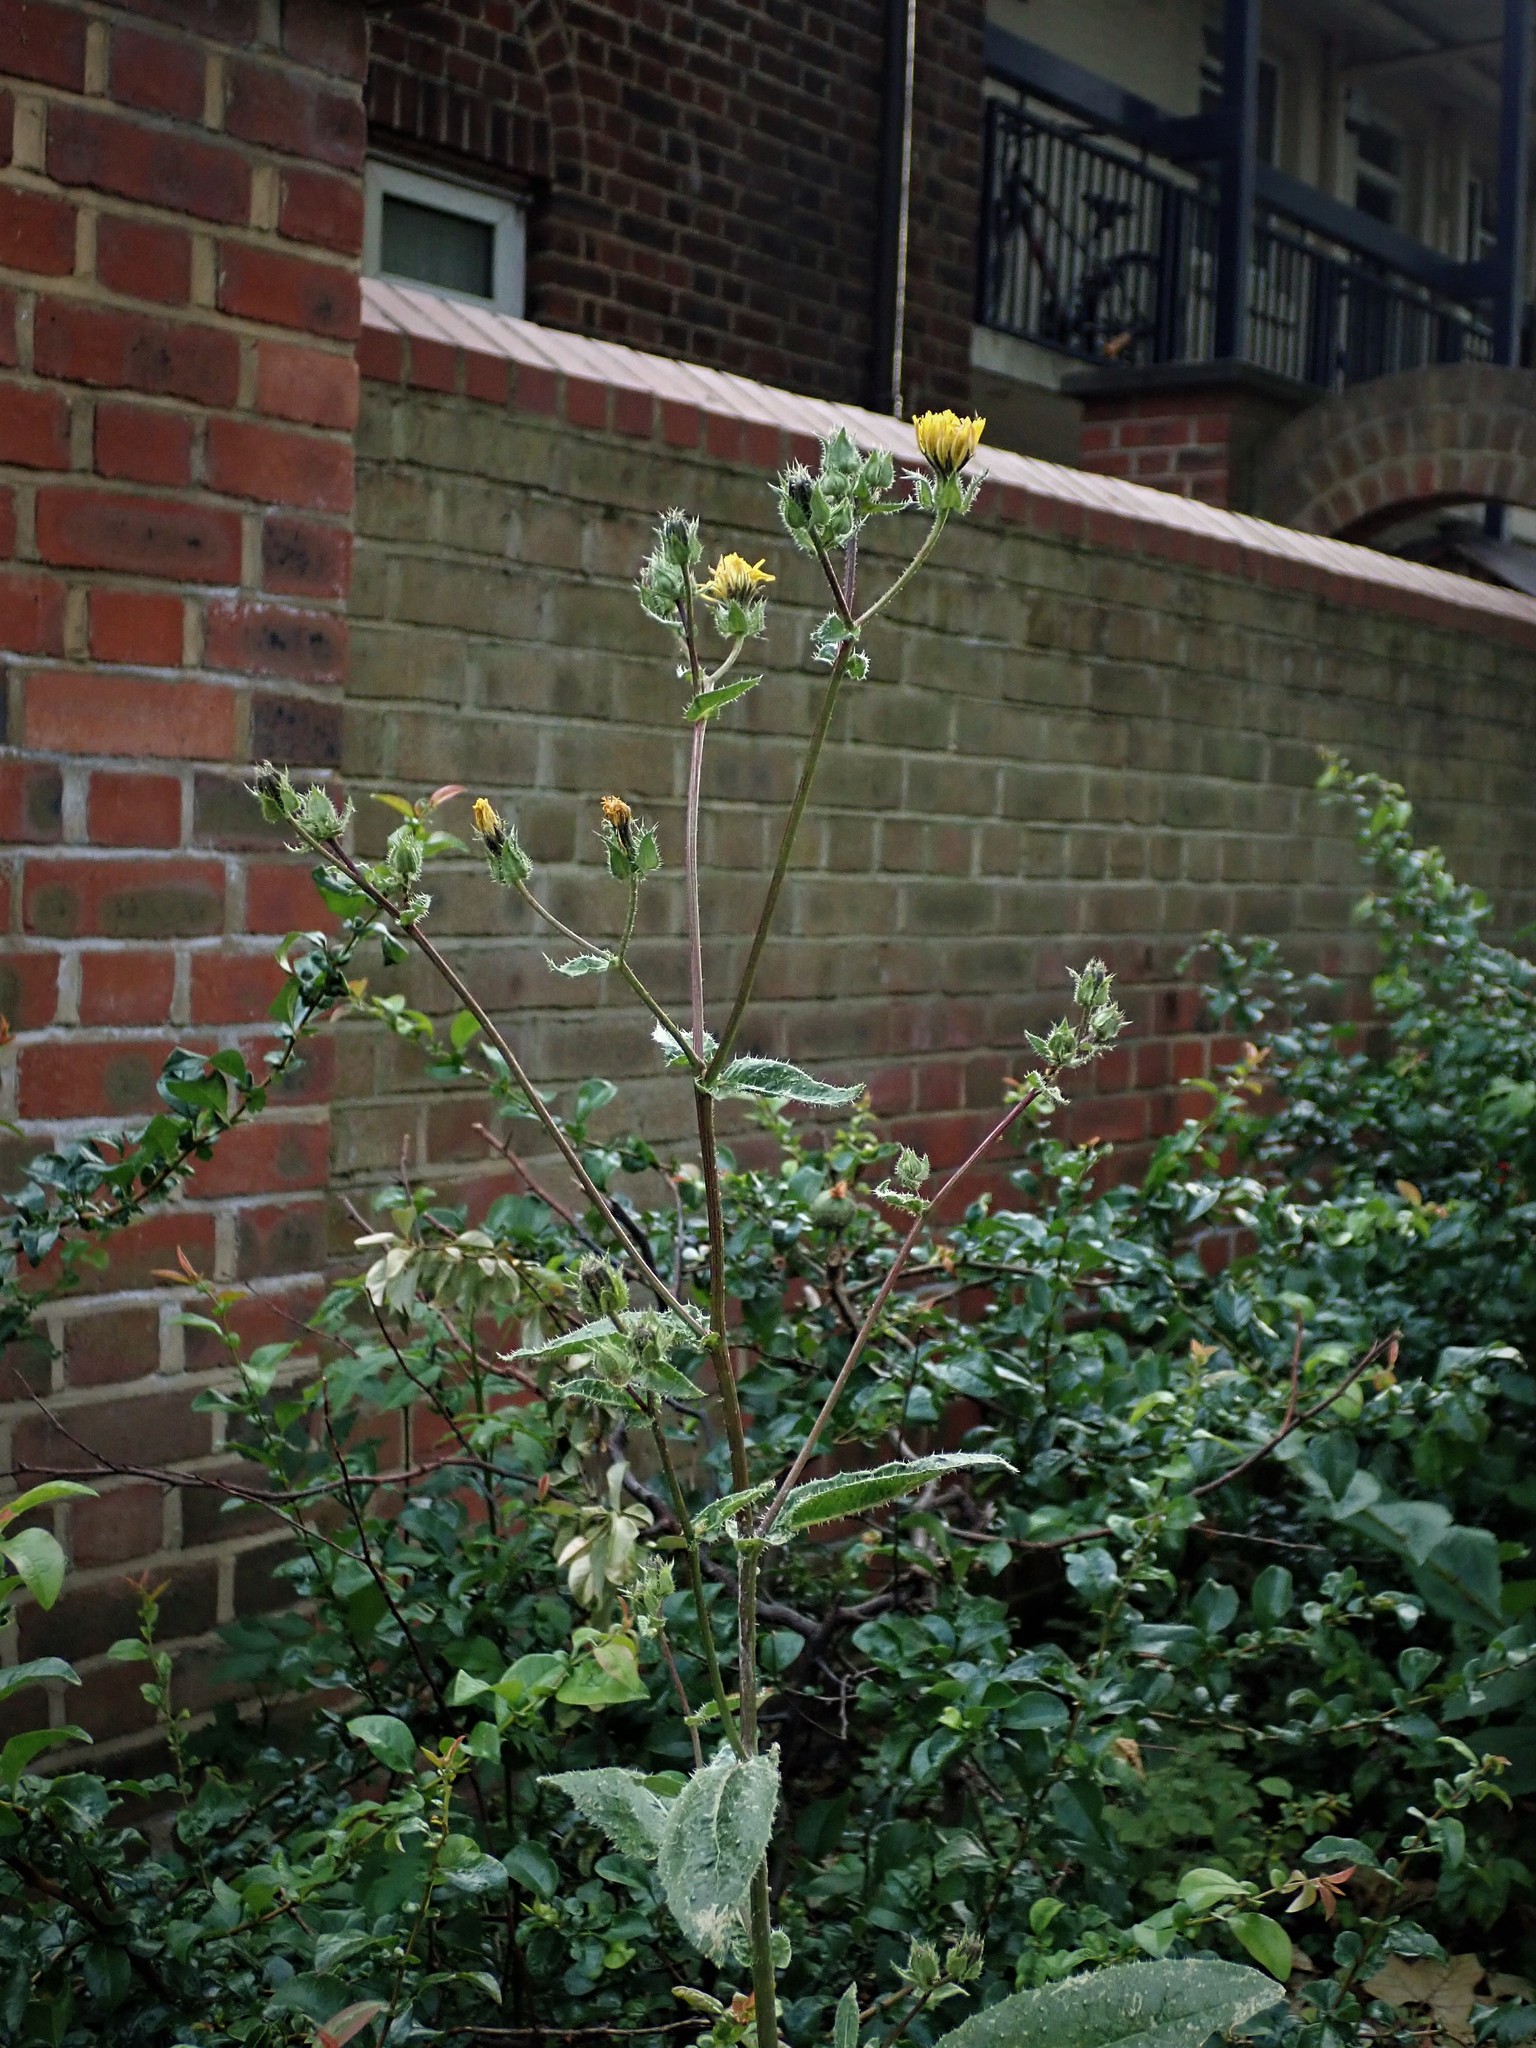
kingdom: Plantae
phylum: Tracheophyta
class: Magnoliopsida
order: Asterales
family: Asteraceae
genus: Helminthotheca
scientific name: Helminthotheca echioides
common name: Ox-tongue
